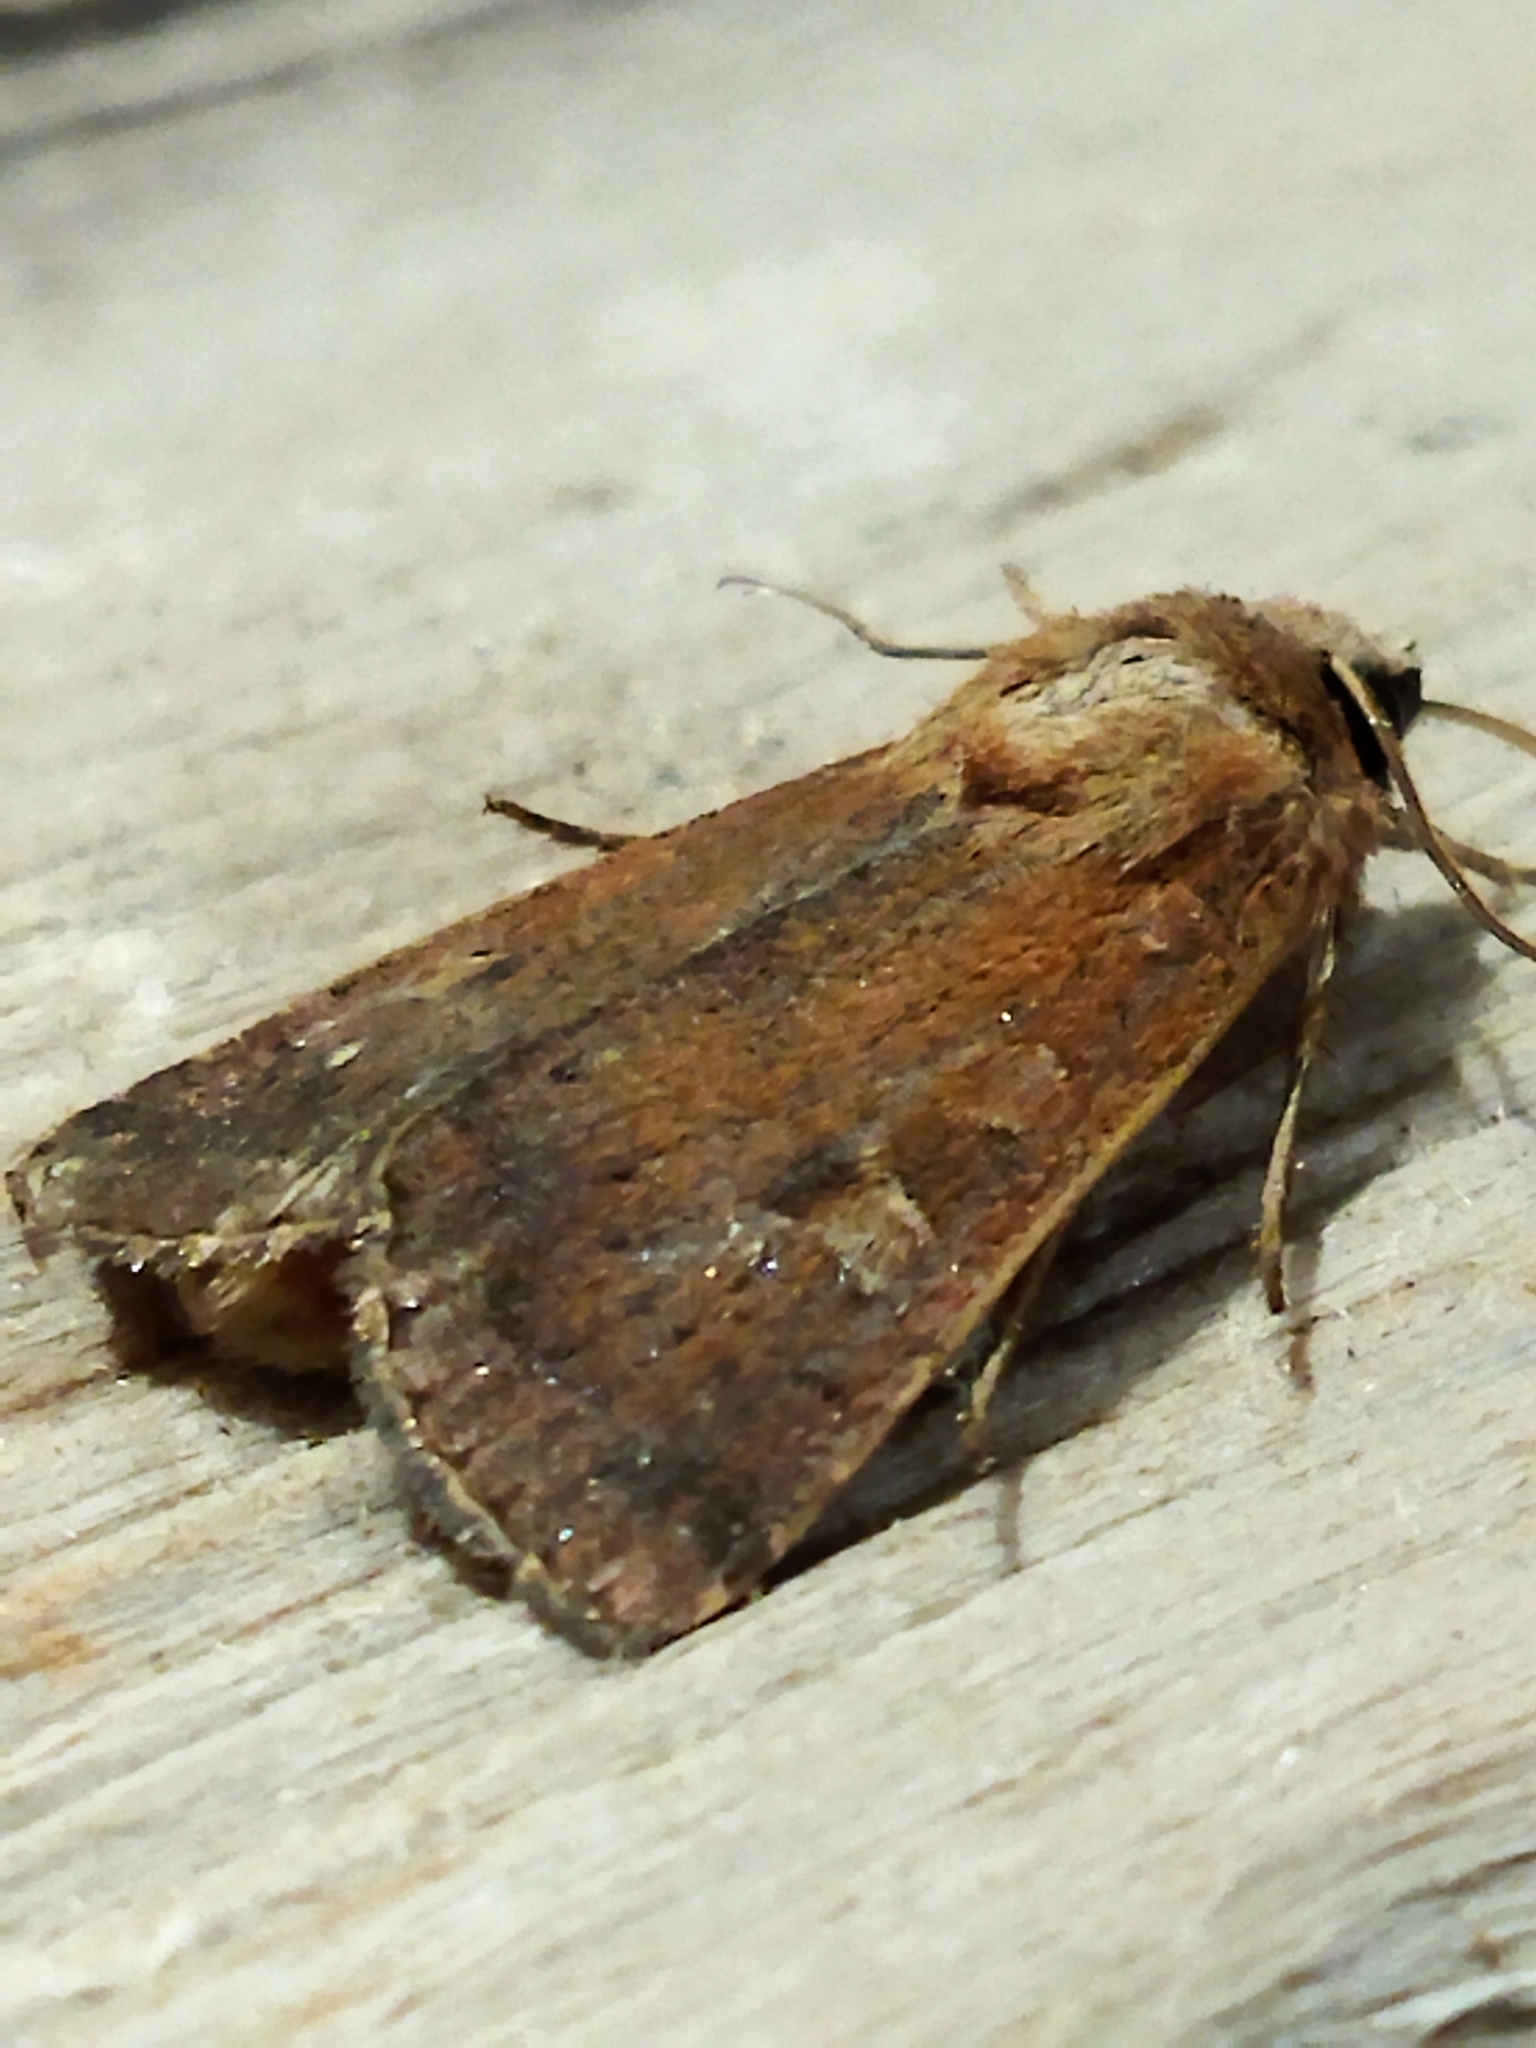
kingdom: Animalia
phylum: Arthropoda
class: Insecta
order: Lepidoptera
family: Noctuidae
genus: Xestia
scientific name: Xestia xanthographa
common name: Square-spot rustic
